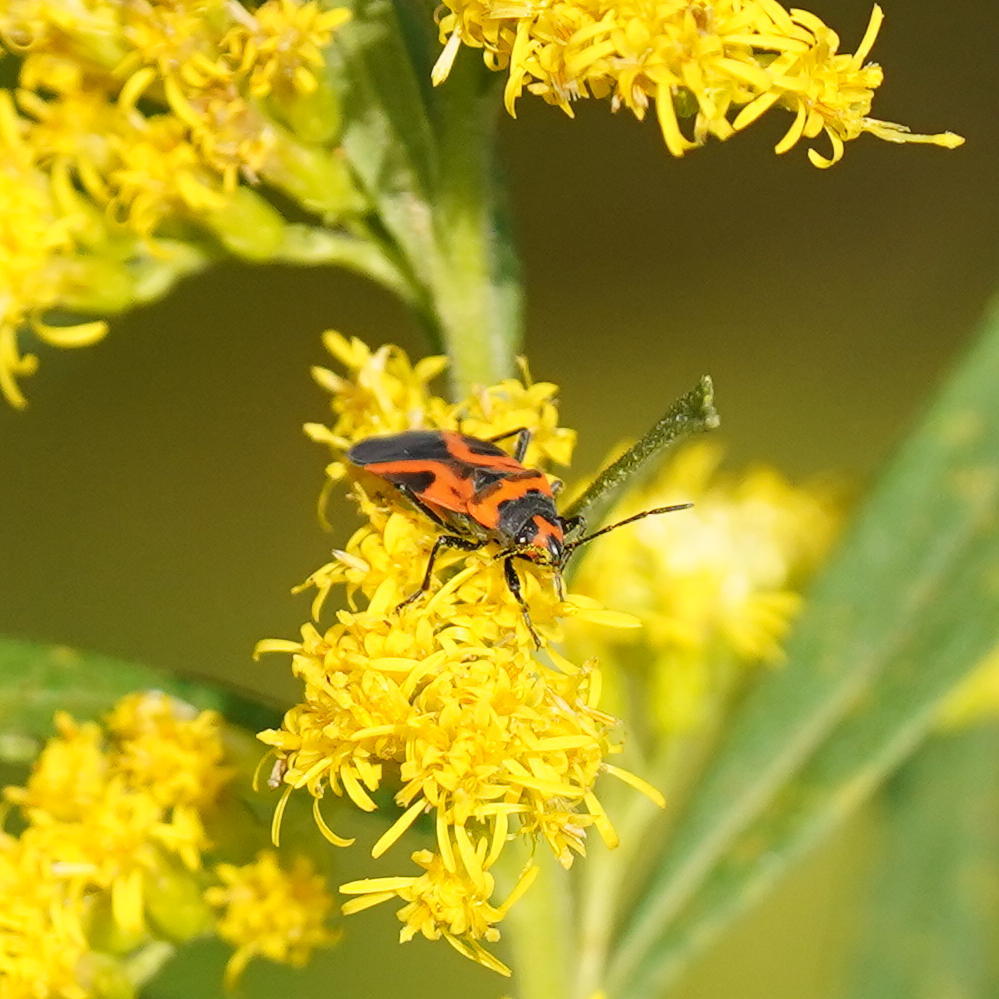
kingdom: Animalia
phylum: Arthropoda
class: Insecta
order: Hemiptera
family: Lygaeidae
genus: Lygaeus
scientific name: Lygaeus turcicus
